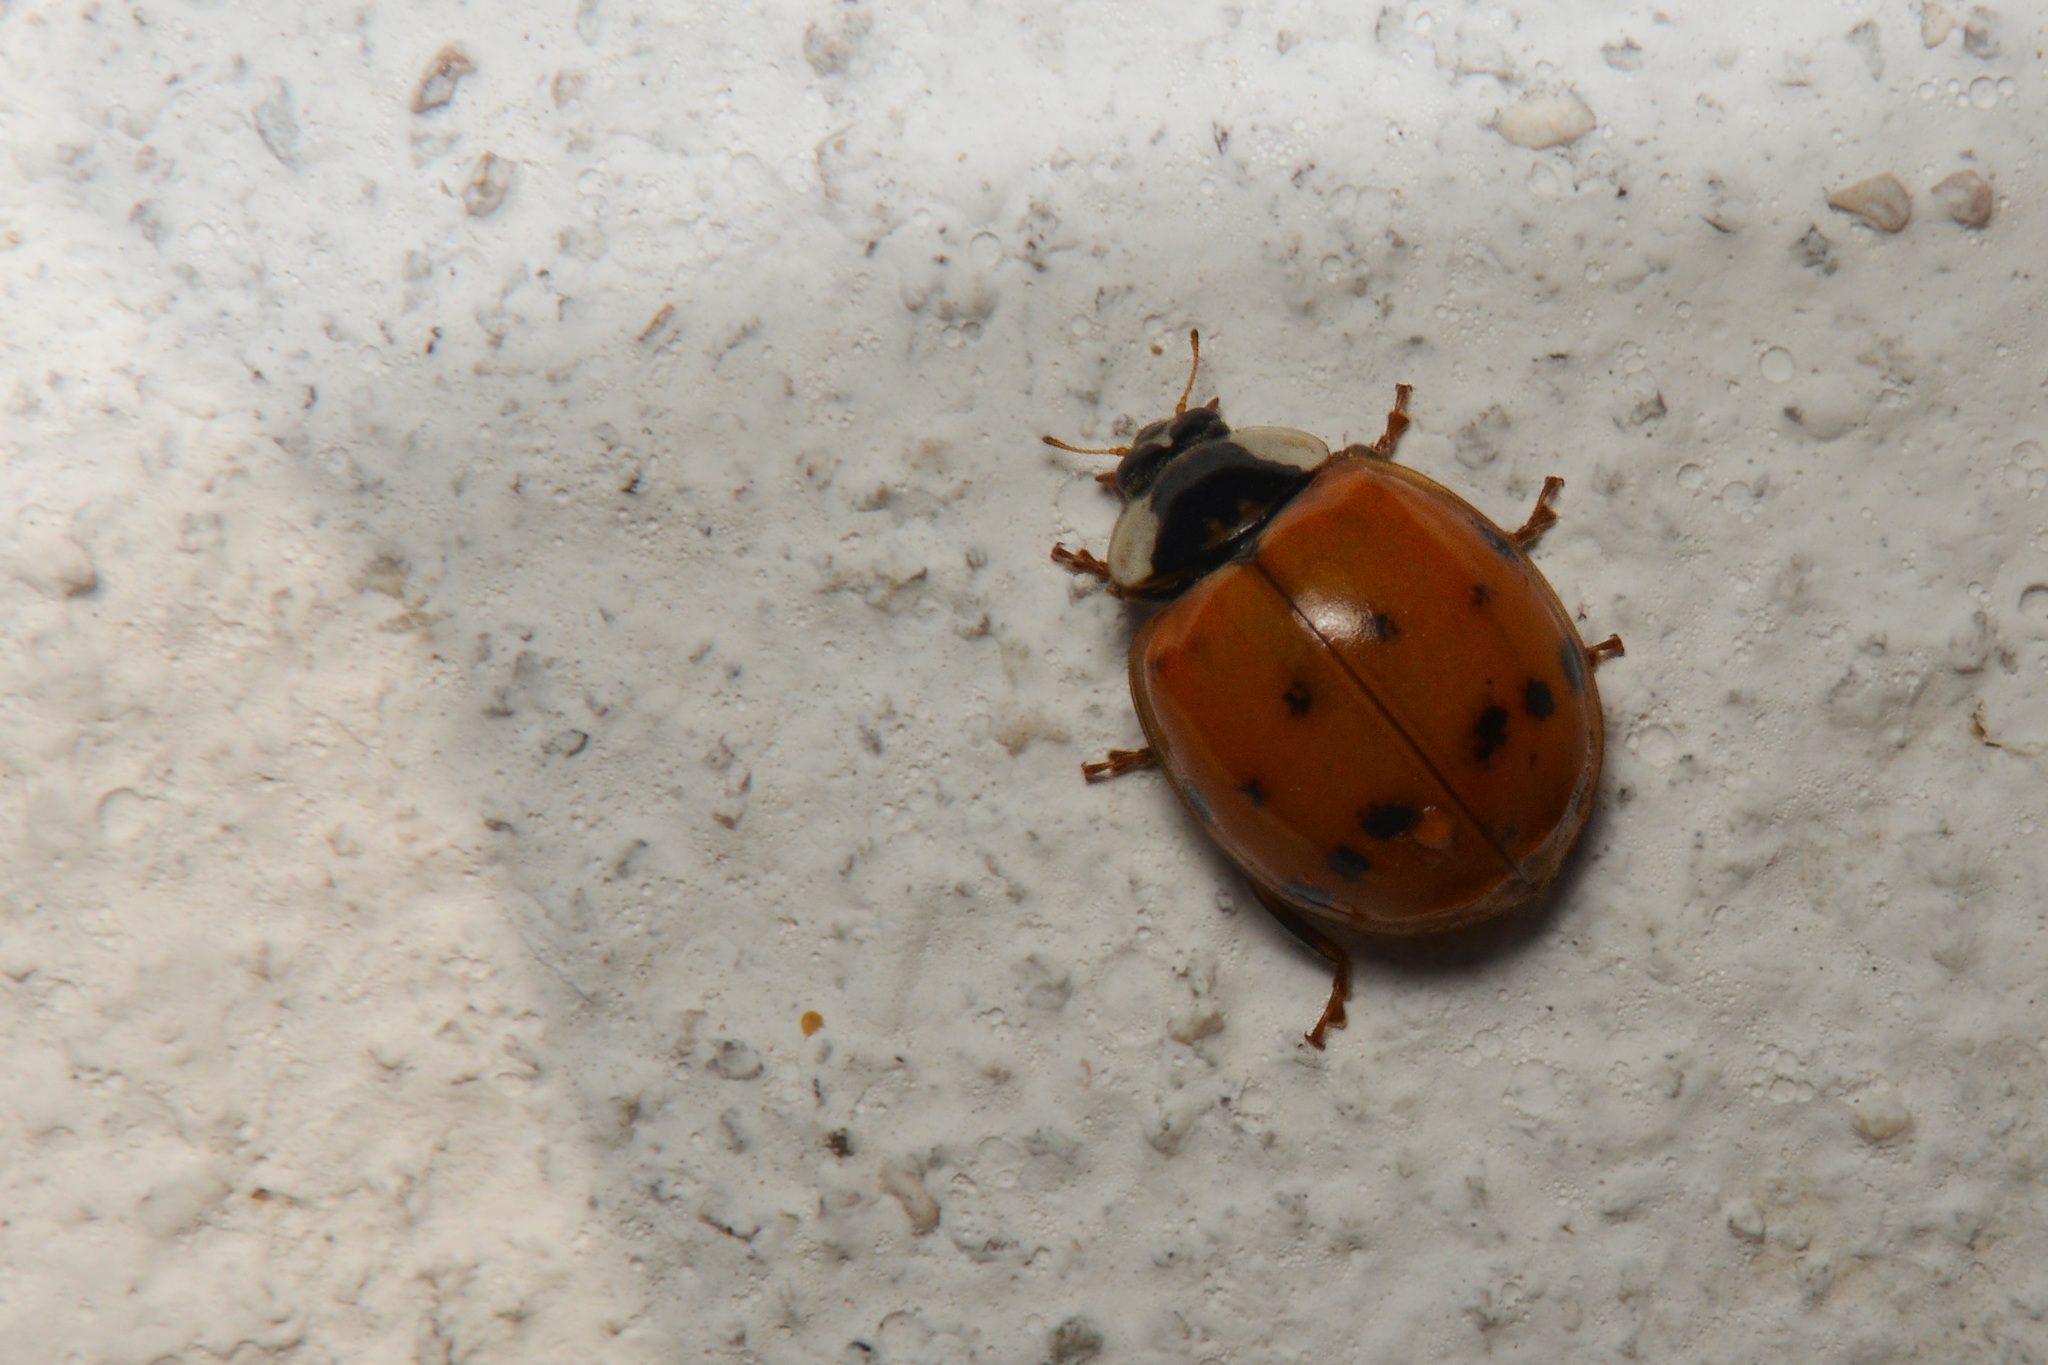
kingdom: Animalia
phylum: Arthropoda
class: Insecta
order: Coleoptera
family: Coccinellidae
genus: Harmonia
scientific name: Harmonia axyridis
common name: Harlequin ladybird
